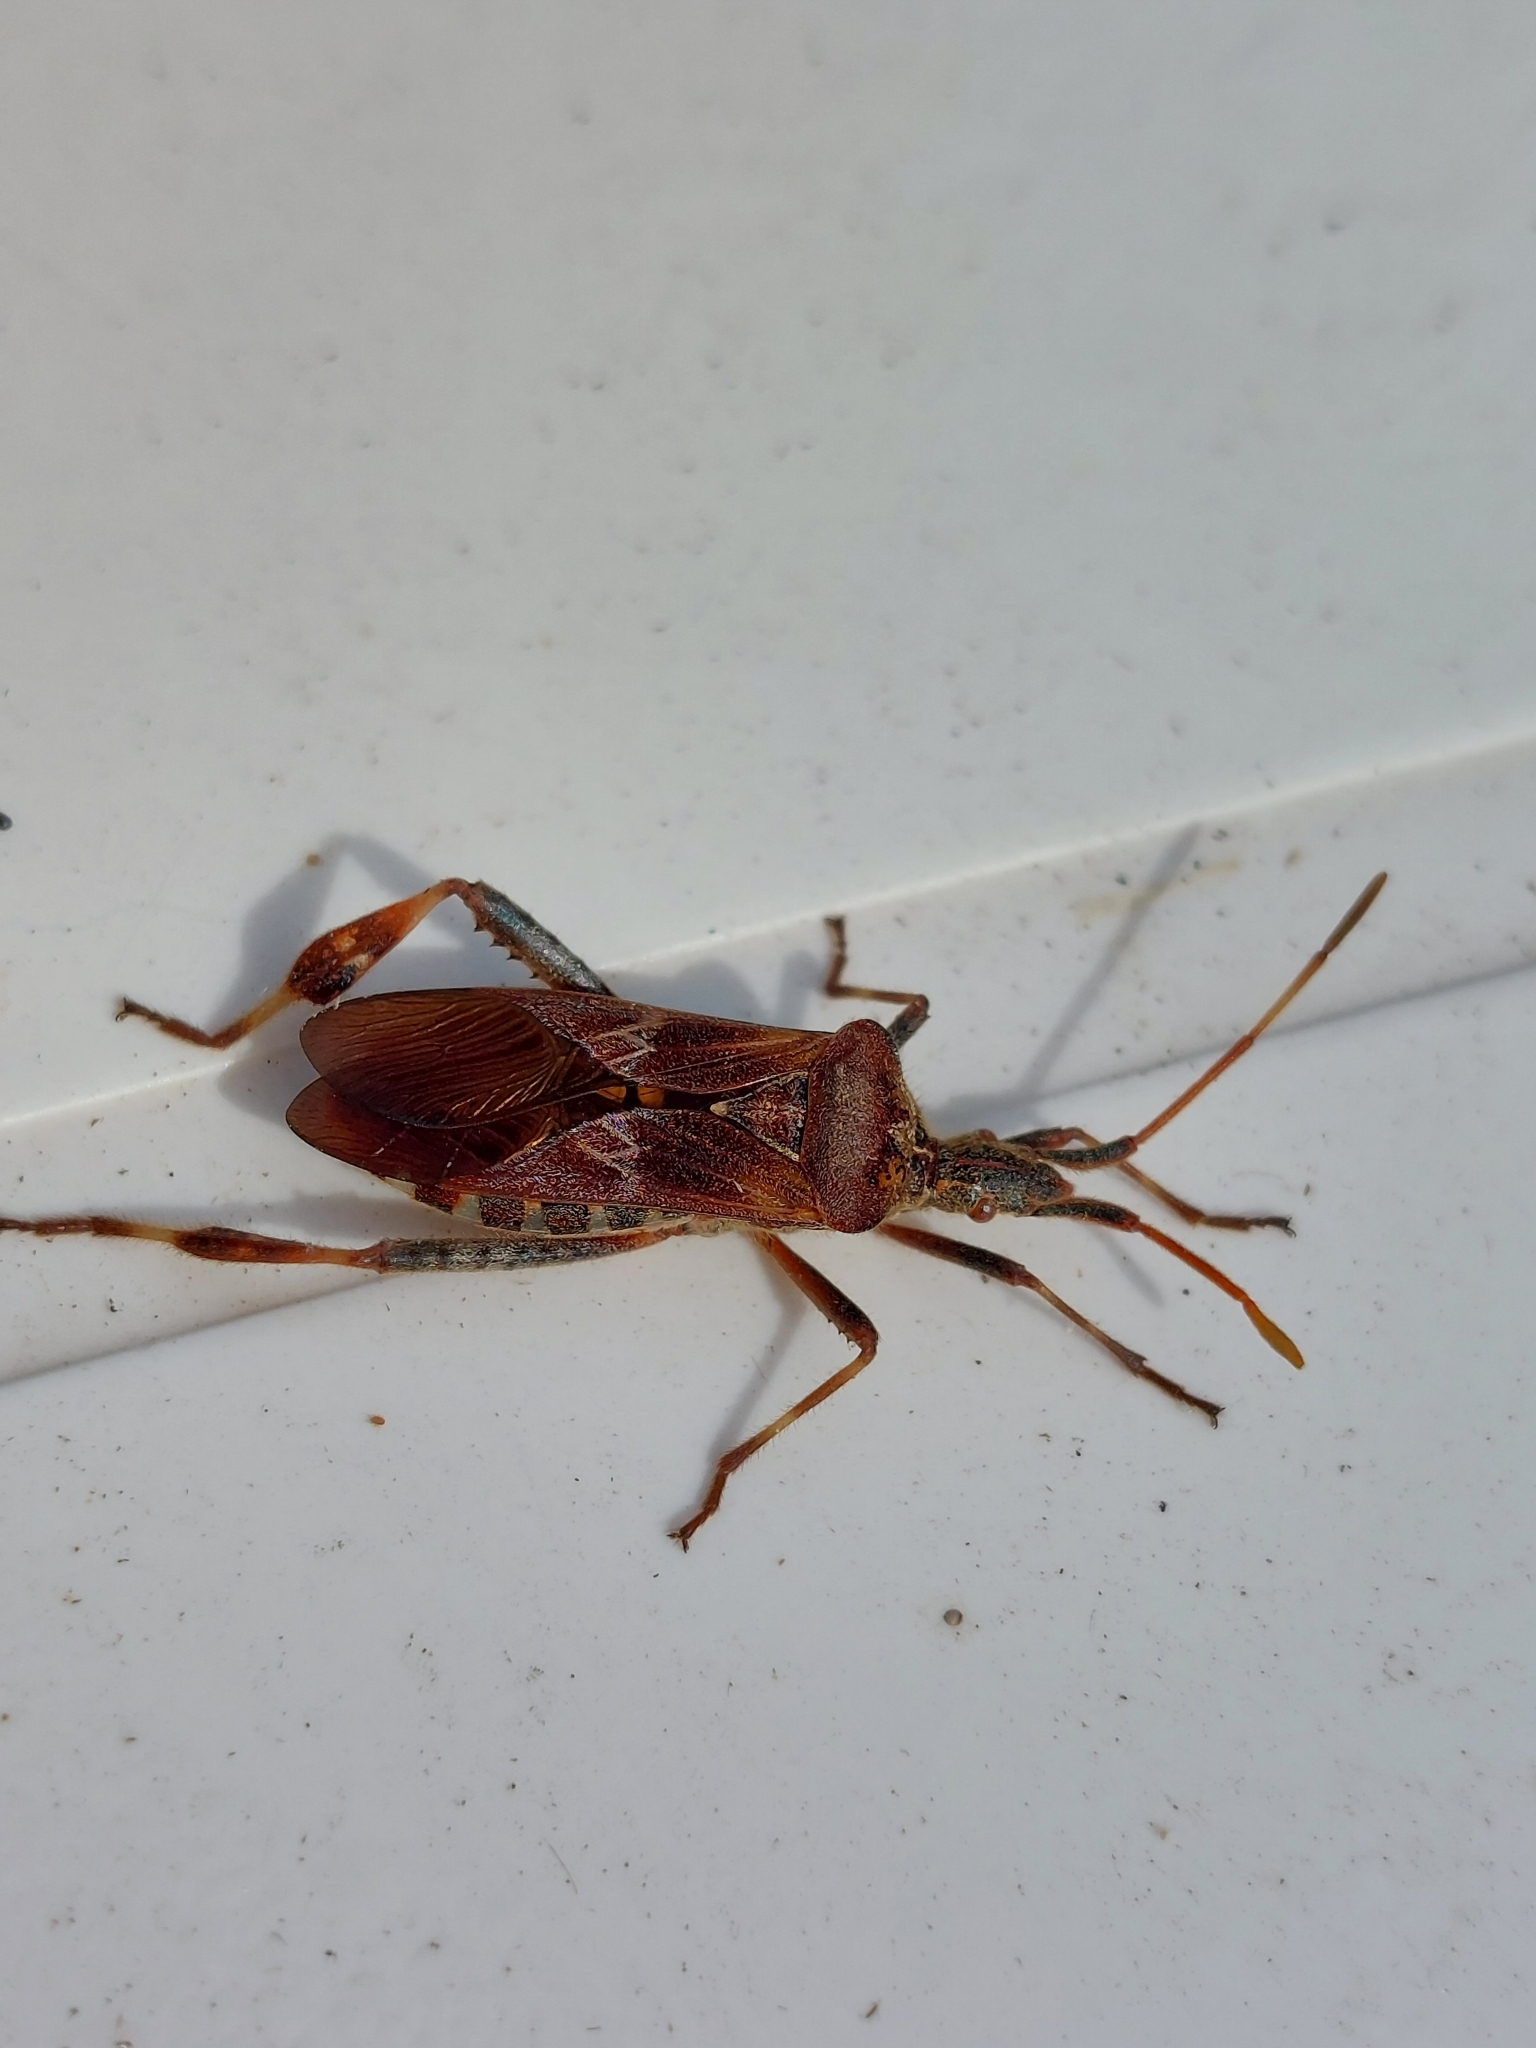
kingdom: Animalia
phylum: Arthropoda
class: Insecta
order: Hemiptera
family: Coreidae
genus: Leptoglossus
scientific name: Leptoglossus occidentalis
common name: Western conifer-seed bug
